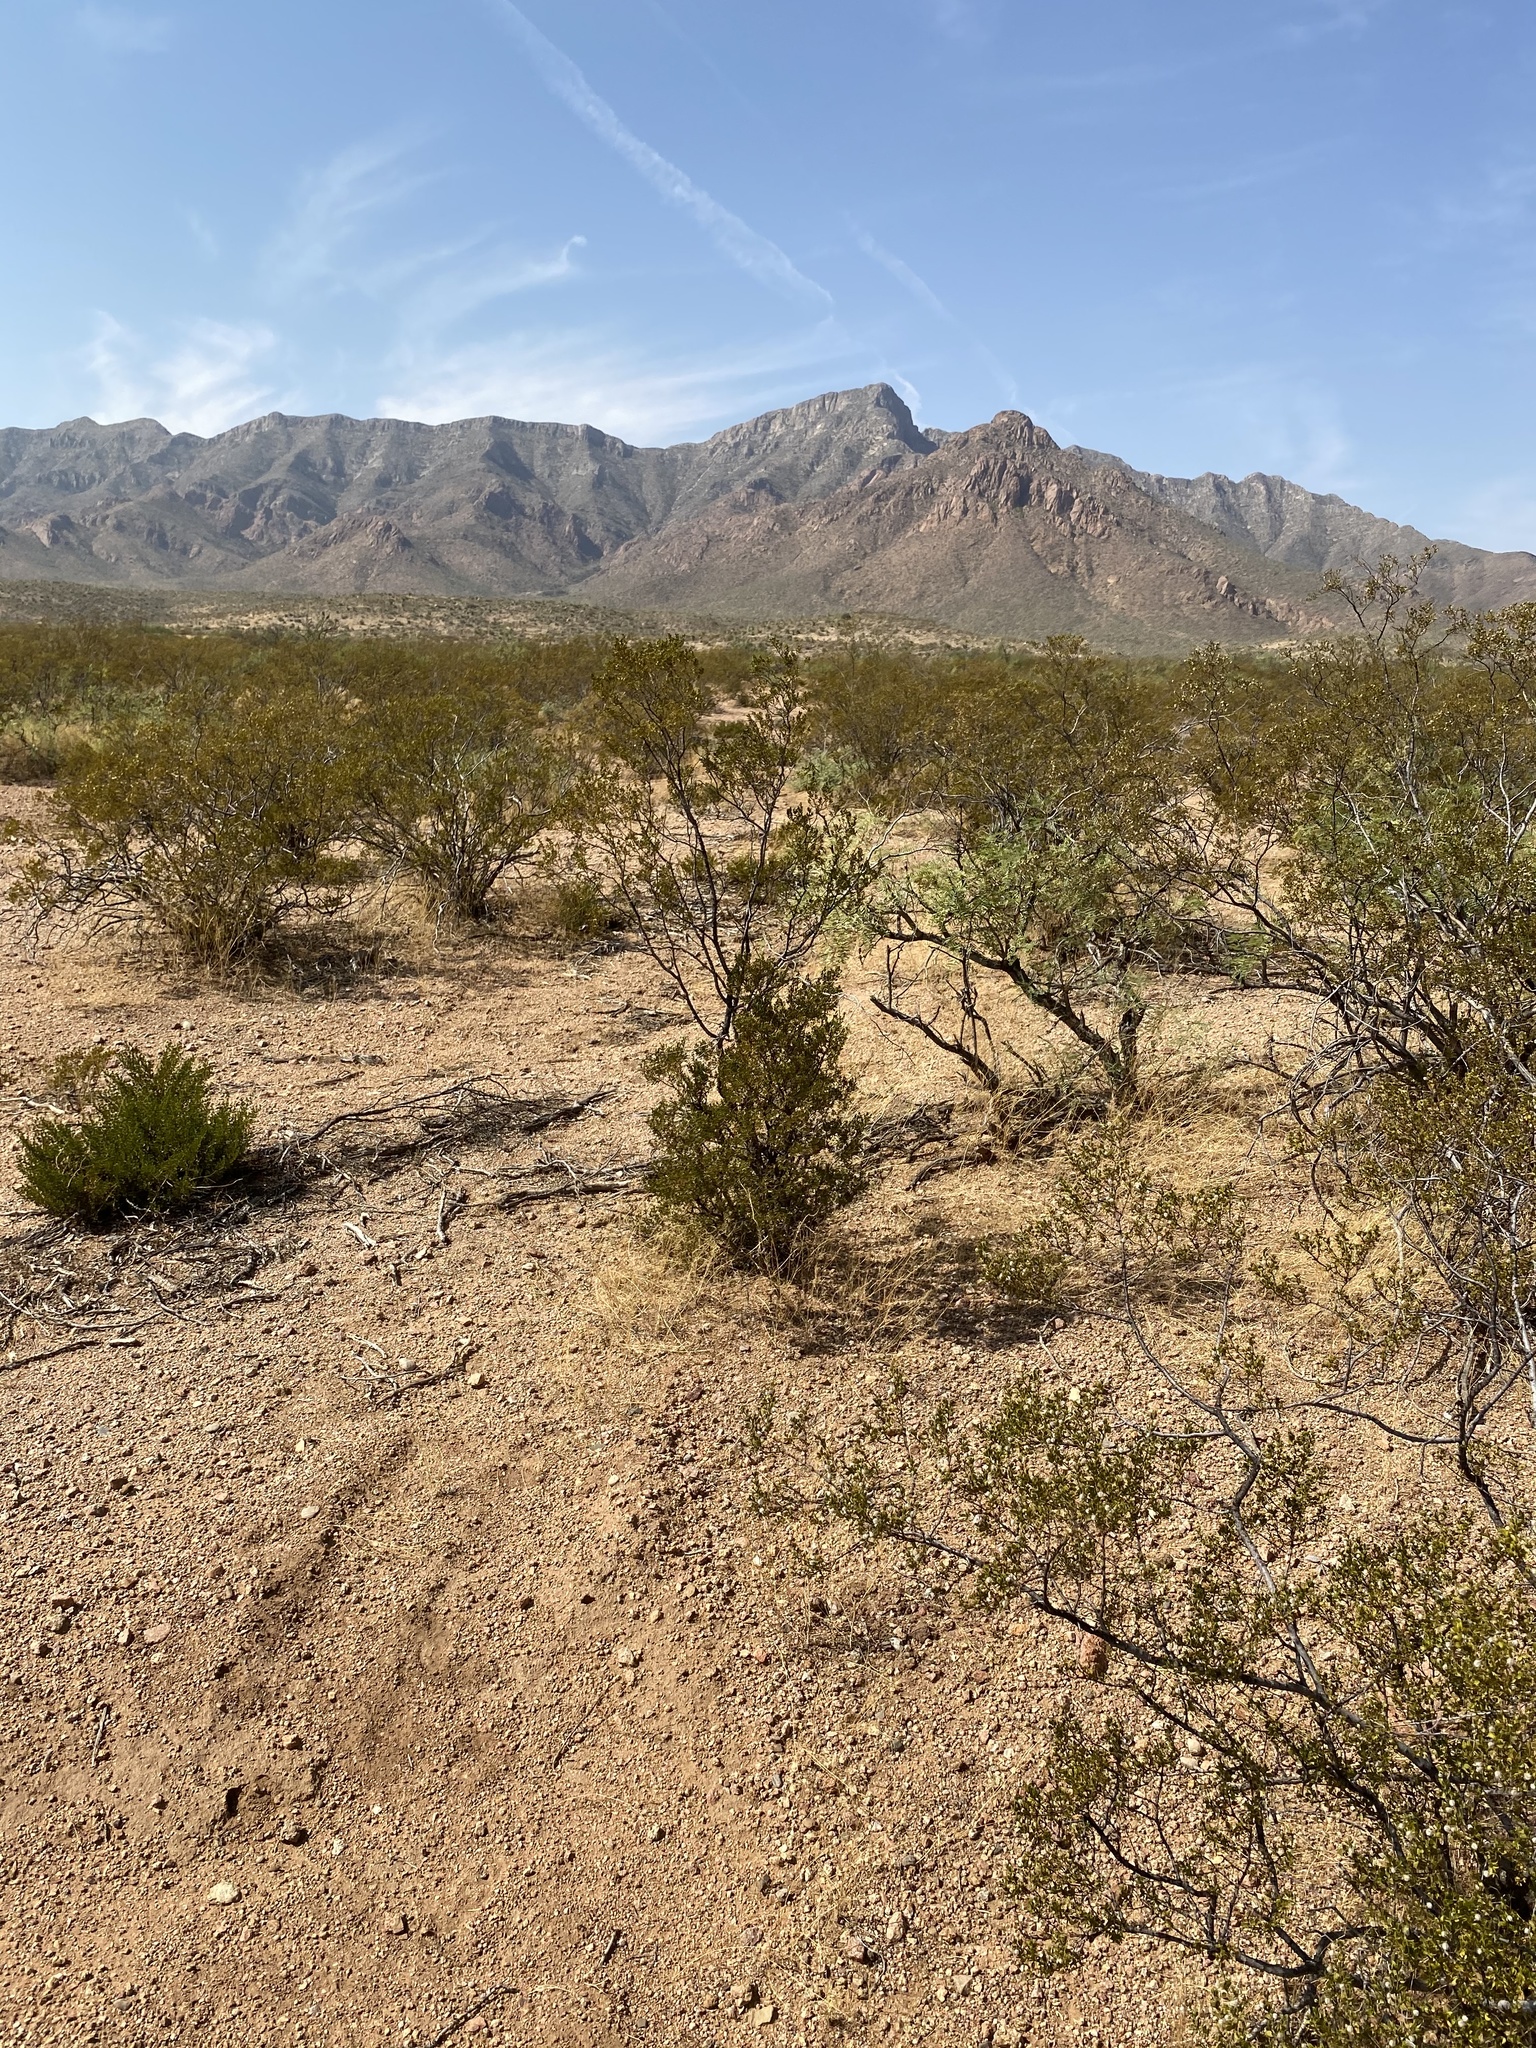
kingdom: Plantae
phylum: Tracheophyta
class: Magnoliopsida
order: Zygophyllales
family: Zygophyllaceae
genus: Larrea
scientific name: Larrea tridentata
